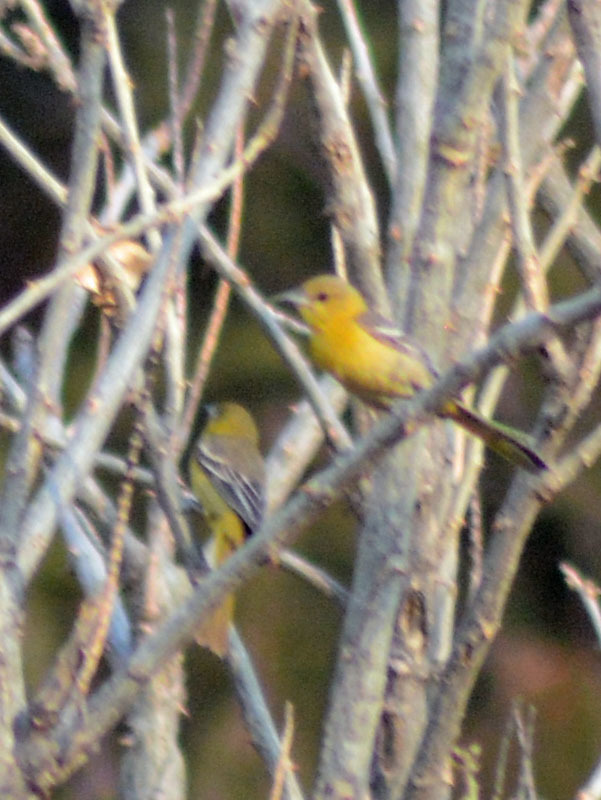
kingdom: Animalia
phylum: Chordata
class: Aves
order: Passeriformes
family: Icteridae
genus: Icterus
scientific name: Icterus cucullatus
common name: Hooded oriole
